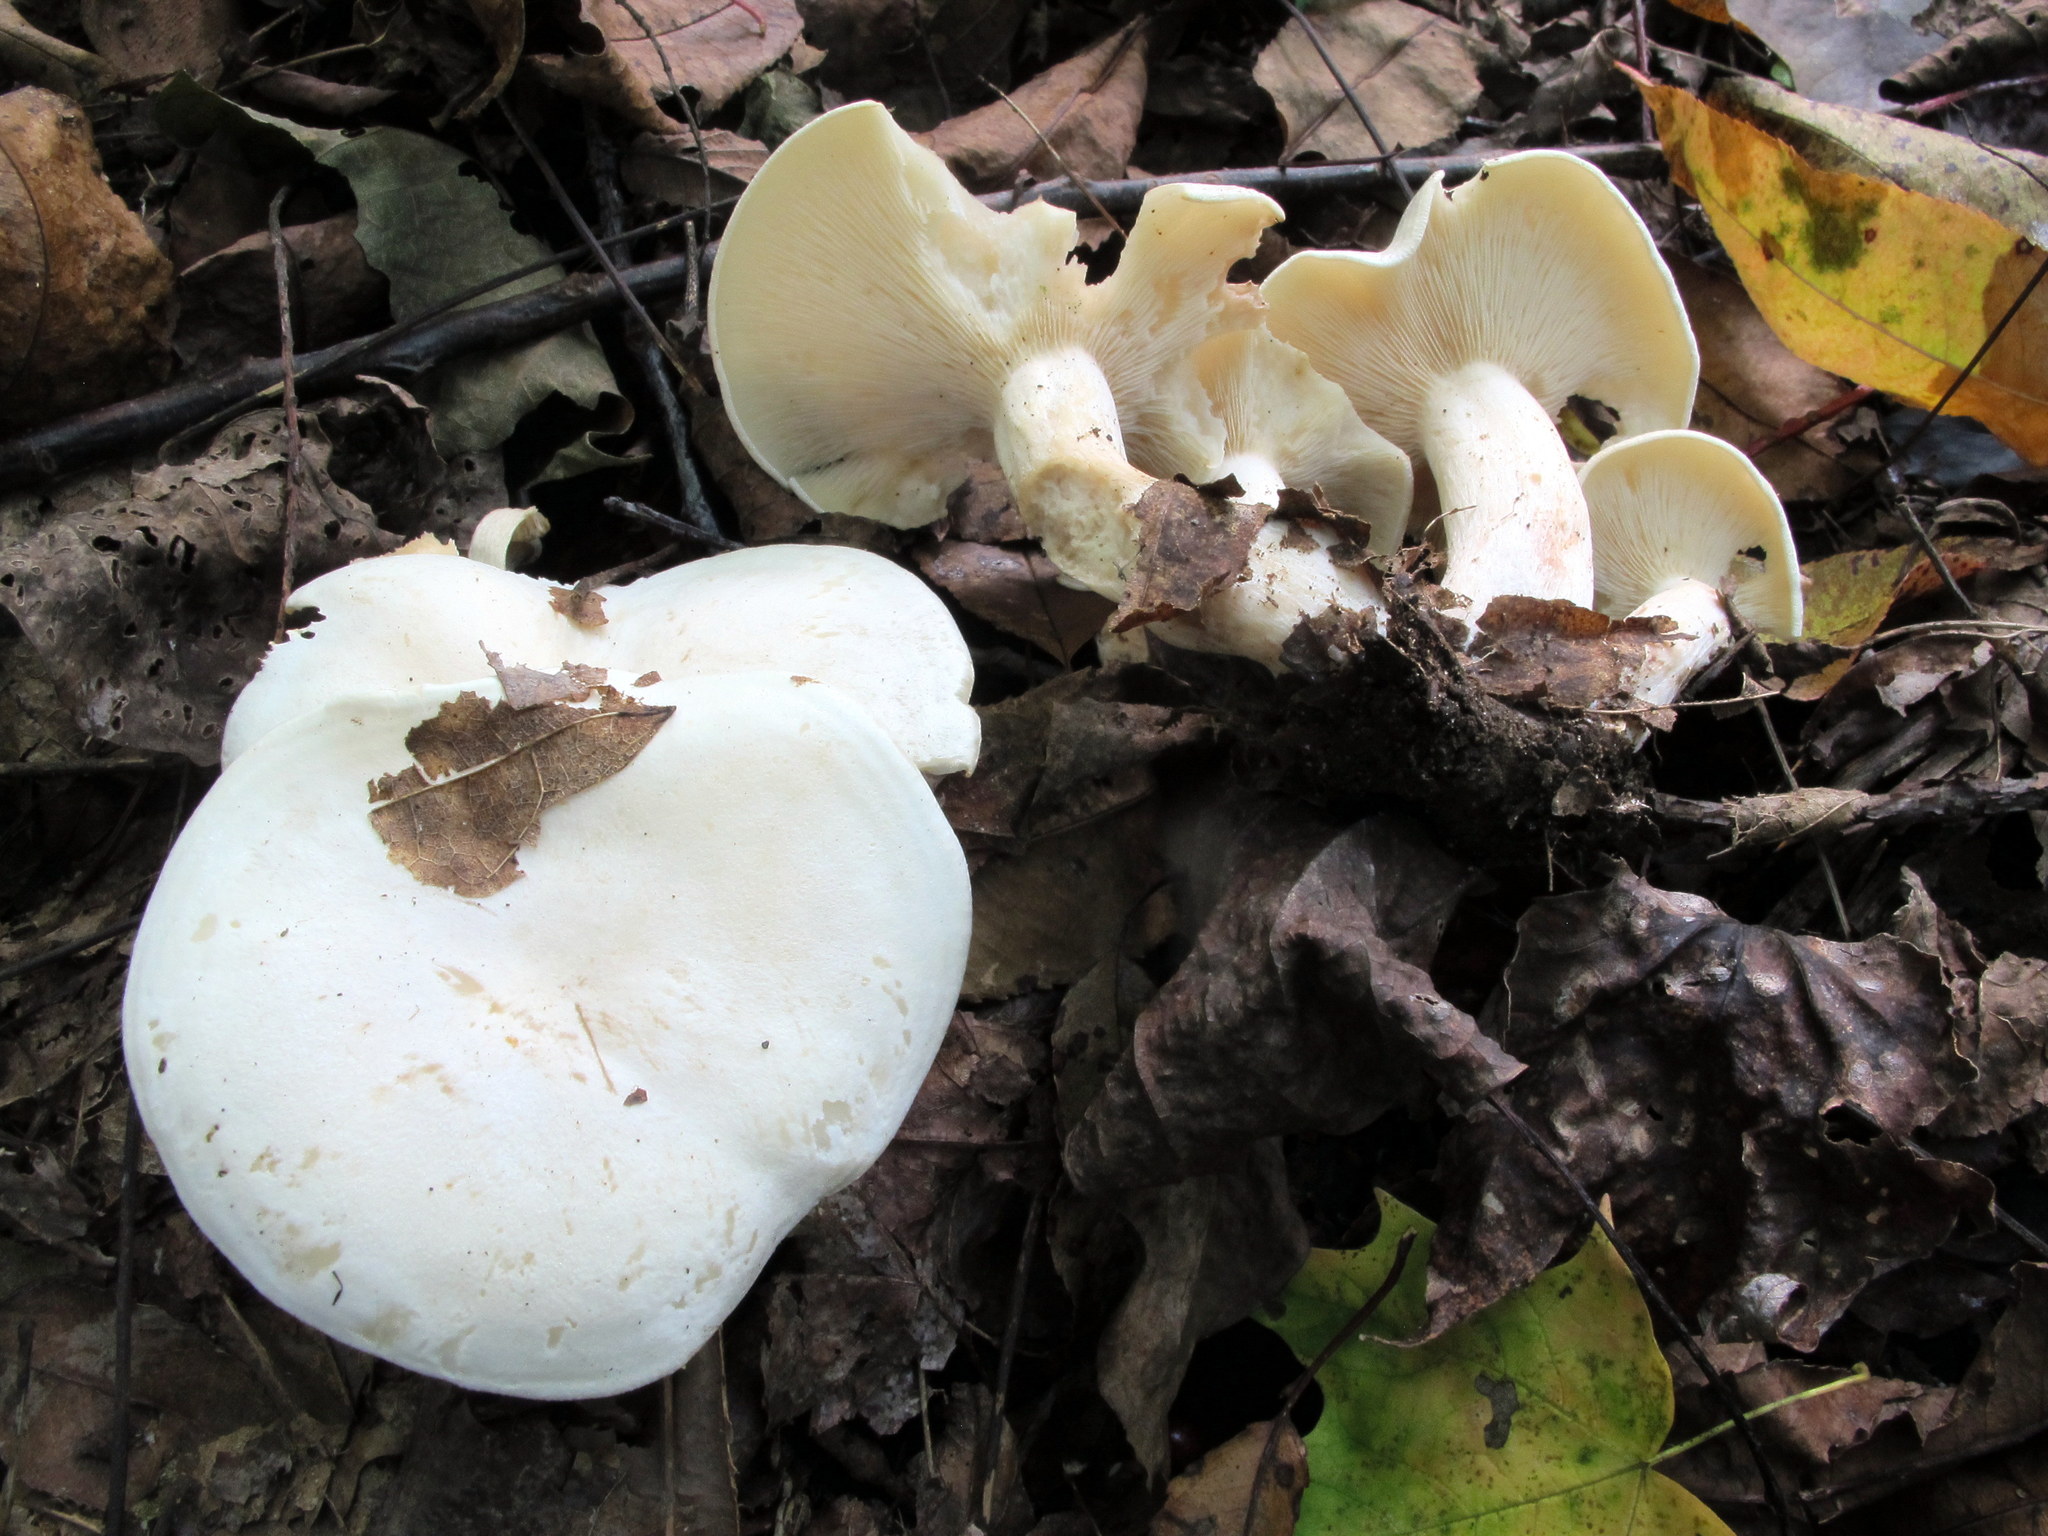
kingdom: Fungi
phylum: Basidiomycota
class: Agaricomycetes
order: Agaricales
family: Tricholomataceae
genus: Lepista
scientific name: Lepista subconnexa
